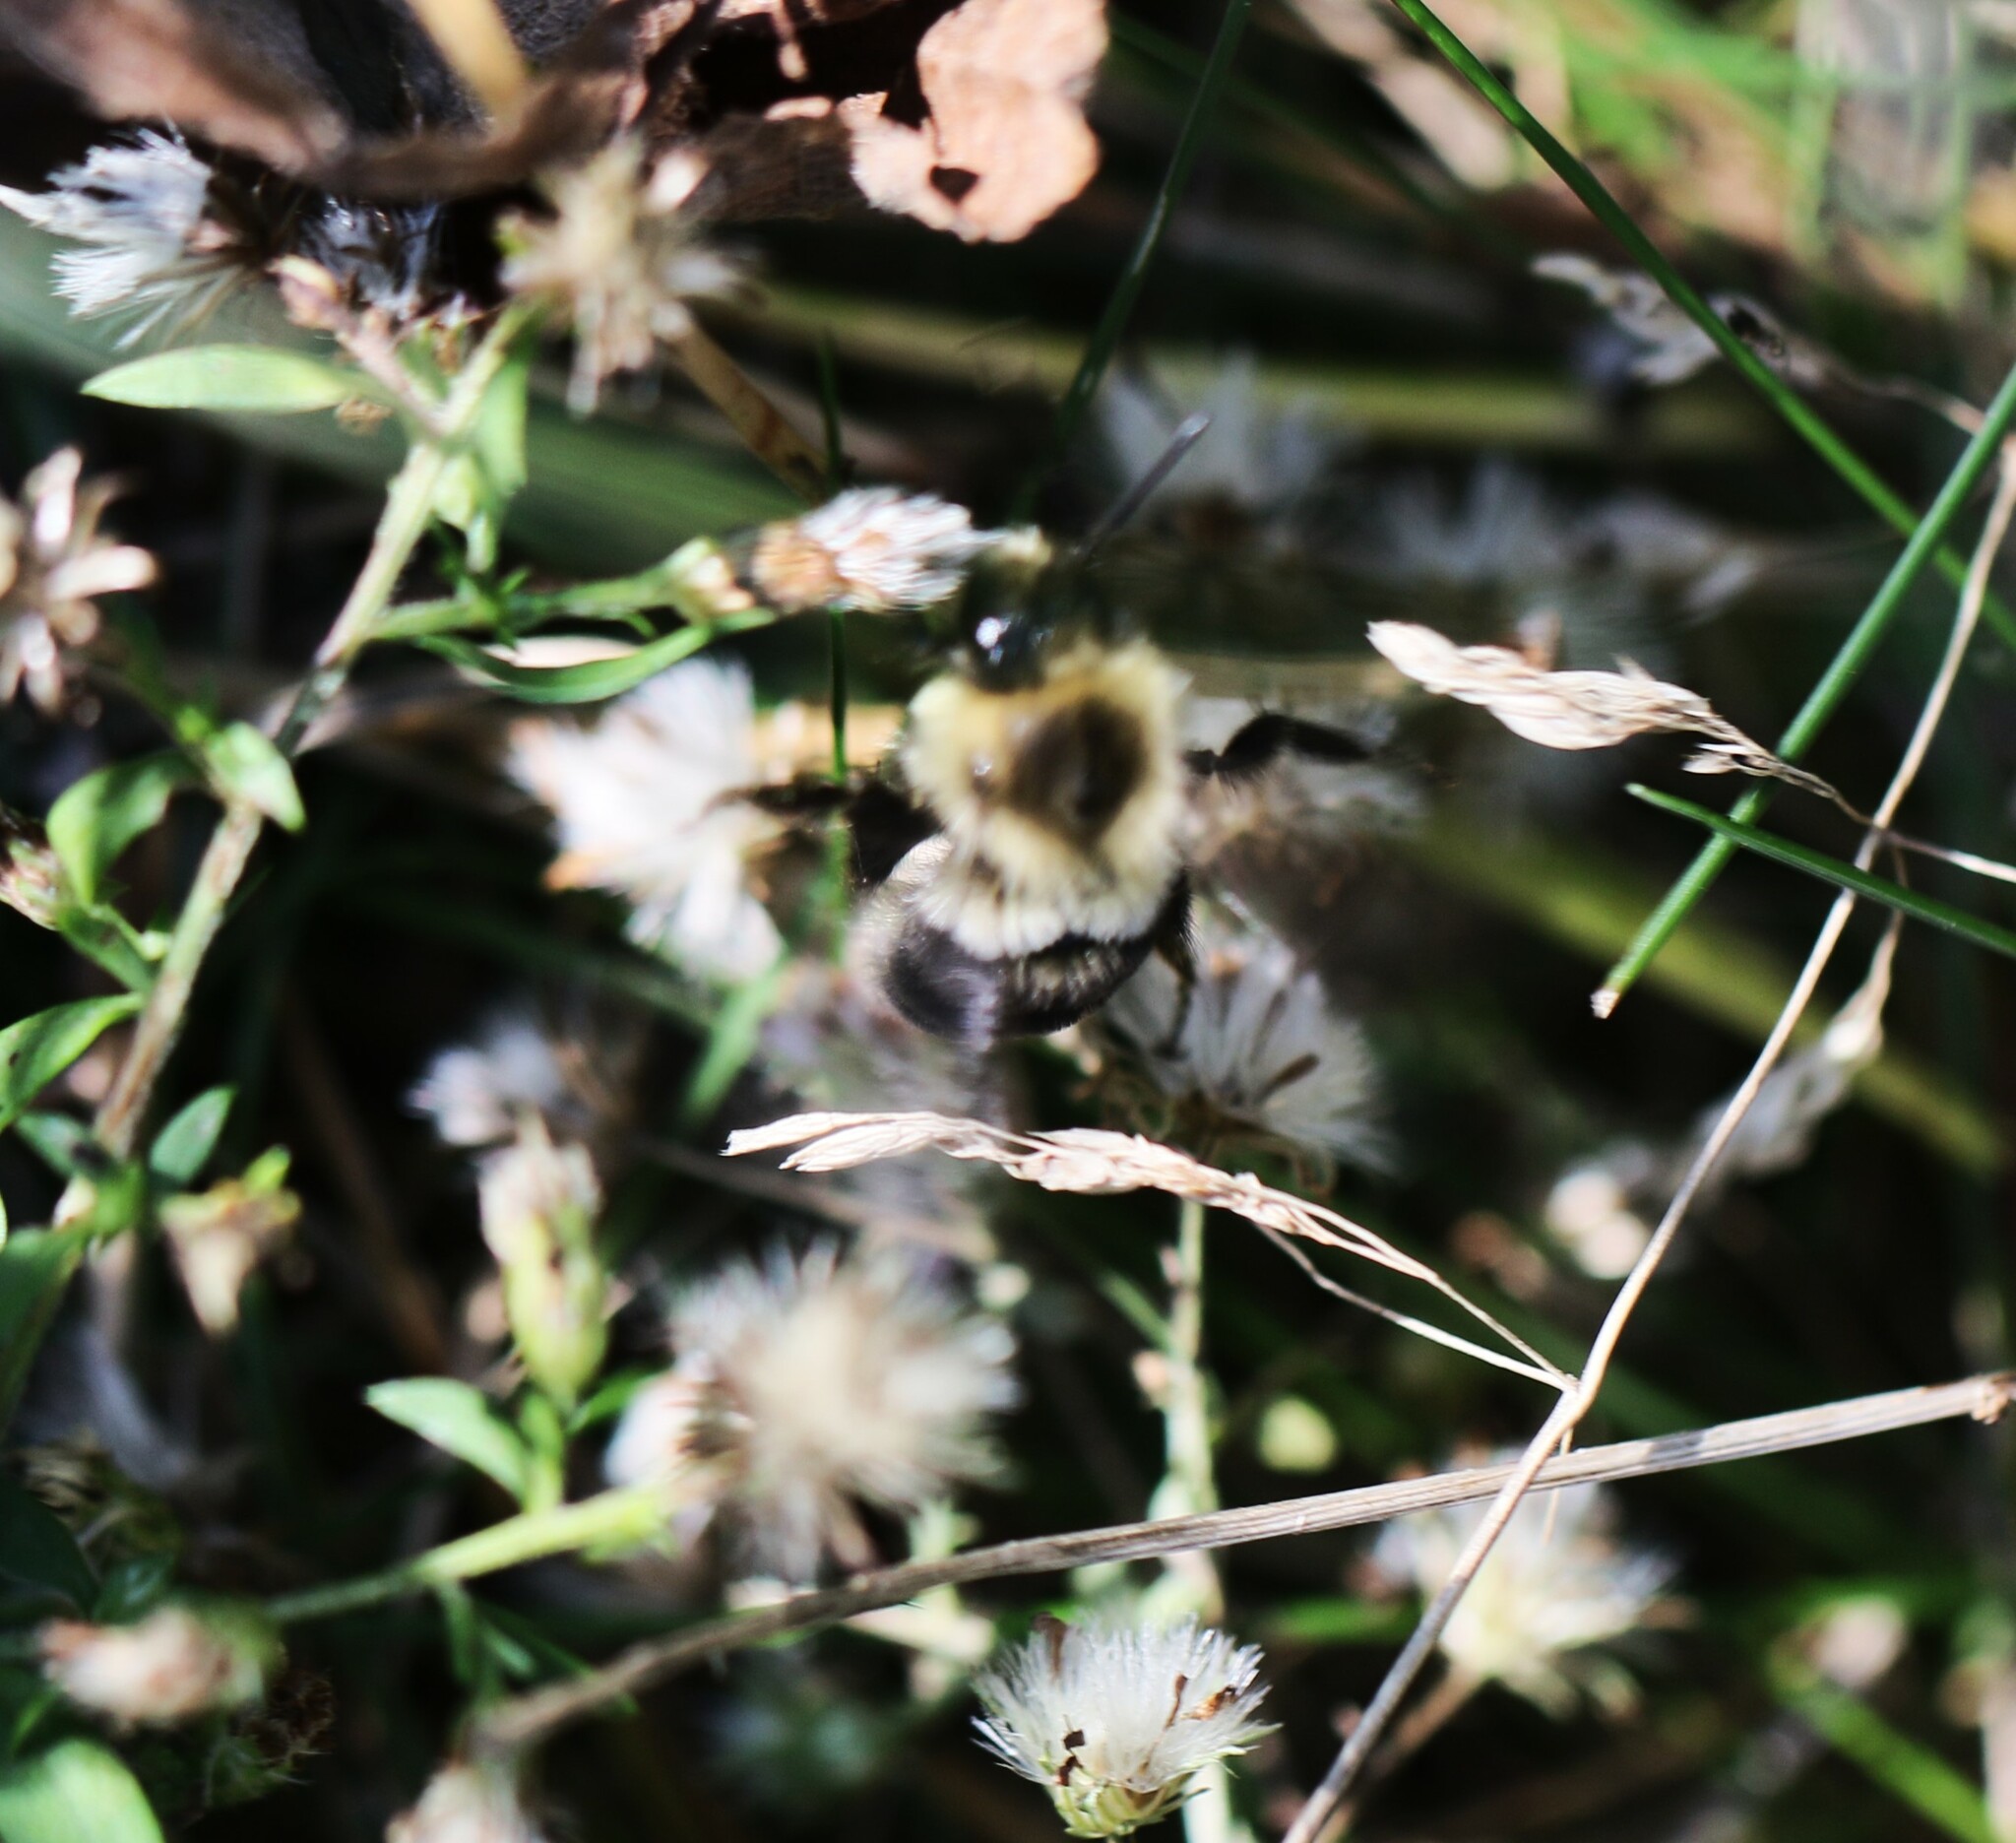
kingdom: Animalia
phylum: Arthropoda
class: Insecta
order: Hymenoptera
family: Apidae
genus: Bombus
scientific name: Bombus impatiens
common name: Common eastern bumble bee
